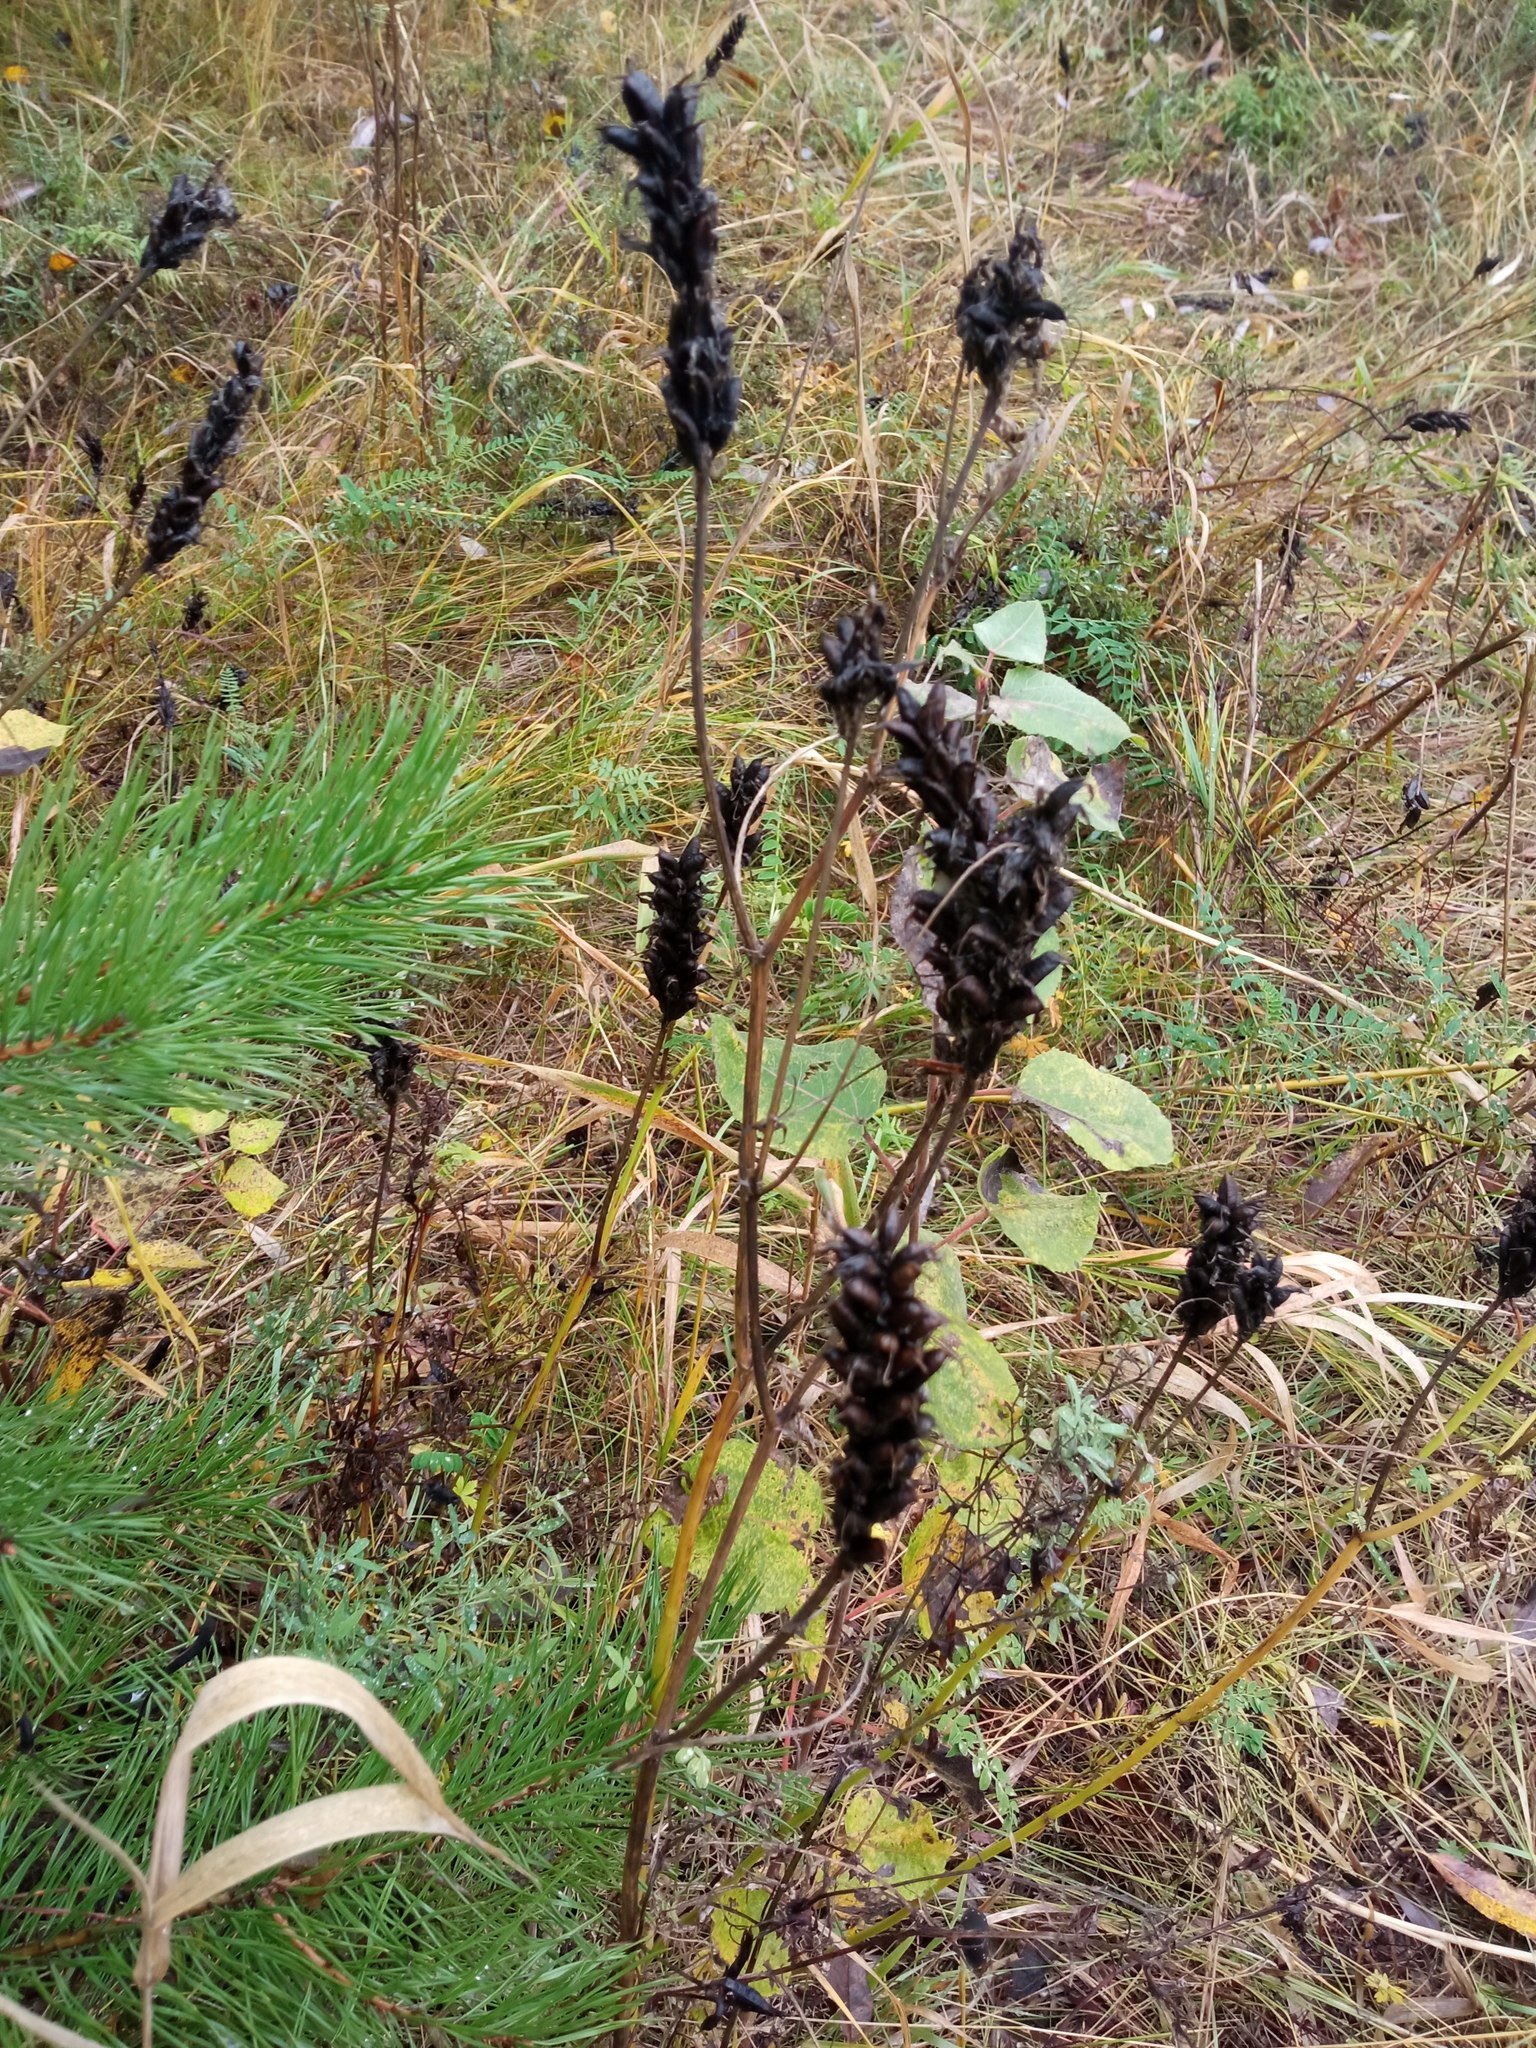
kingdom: Plantae
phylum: Tracheophyta
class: Magnoliopsida
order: Fabales
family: Fabaceae
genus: Astragalus
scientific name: Astragalus uliginosus
